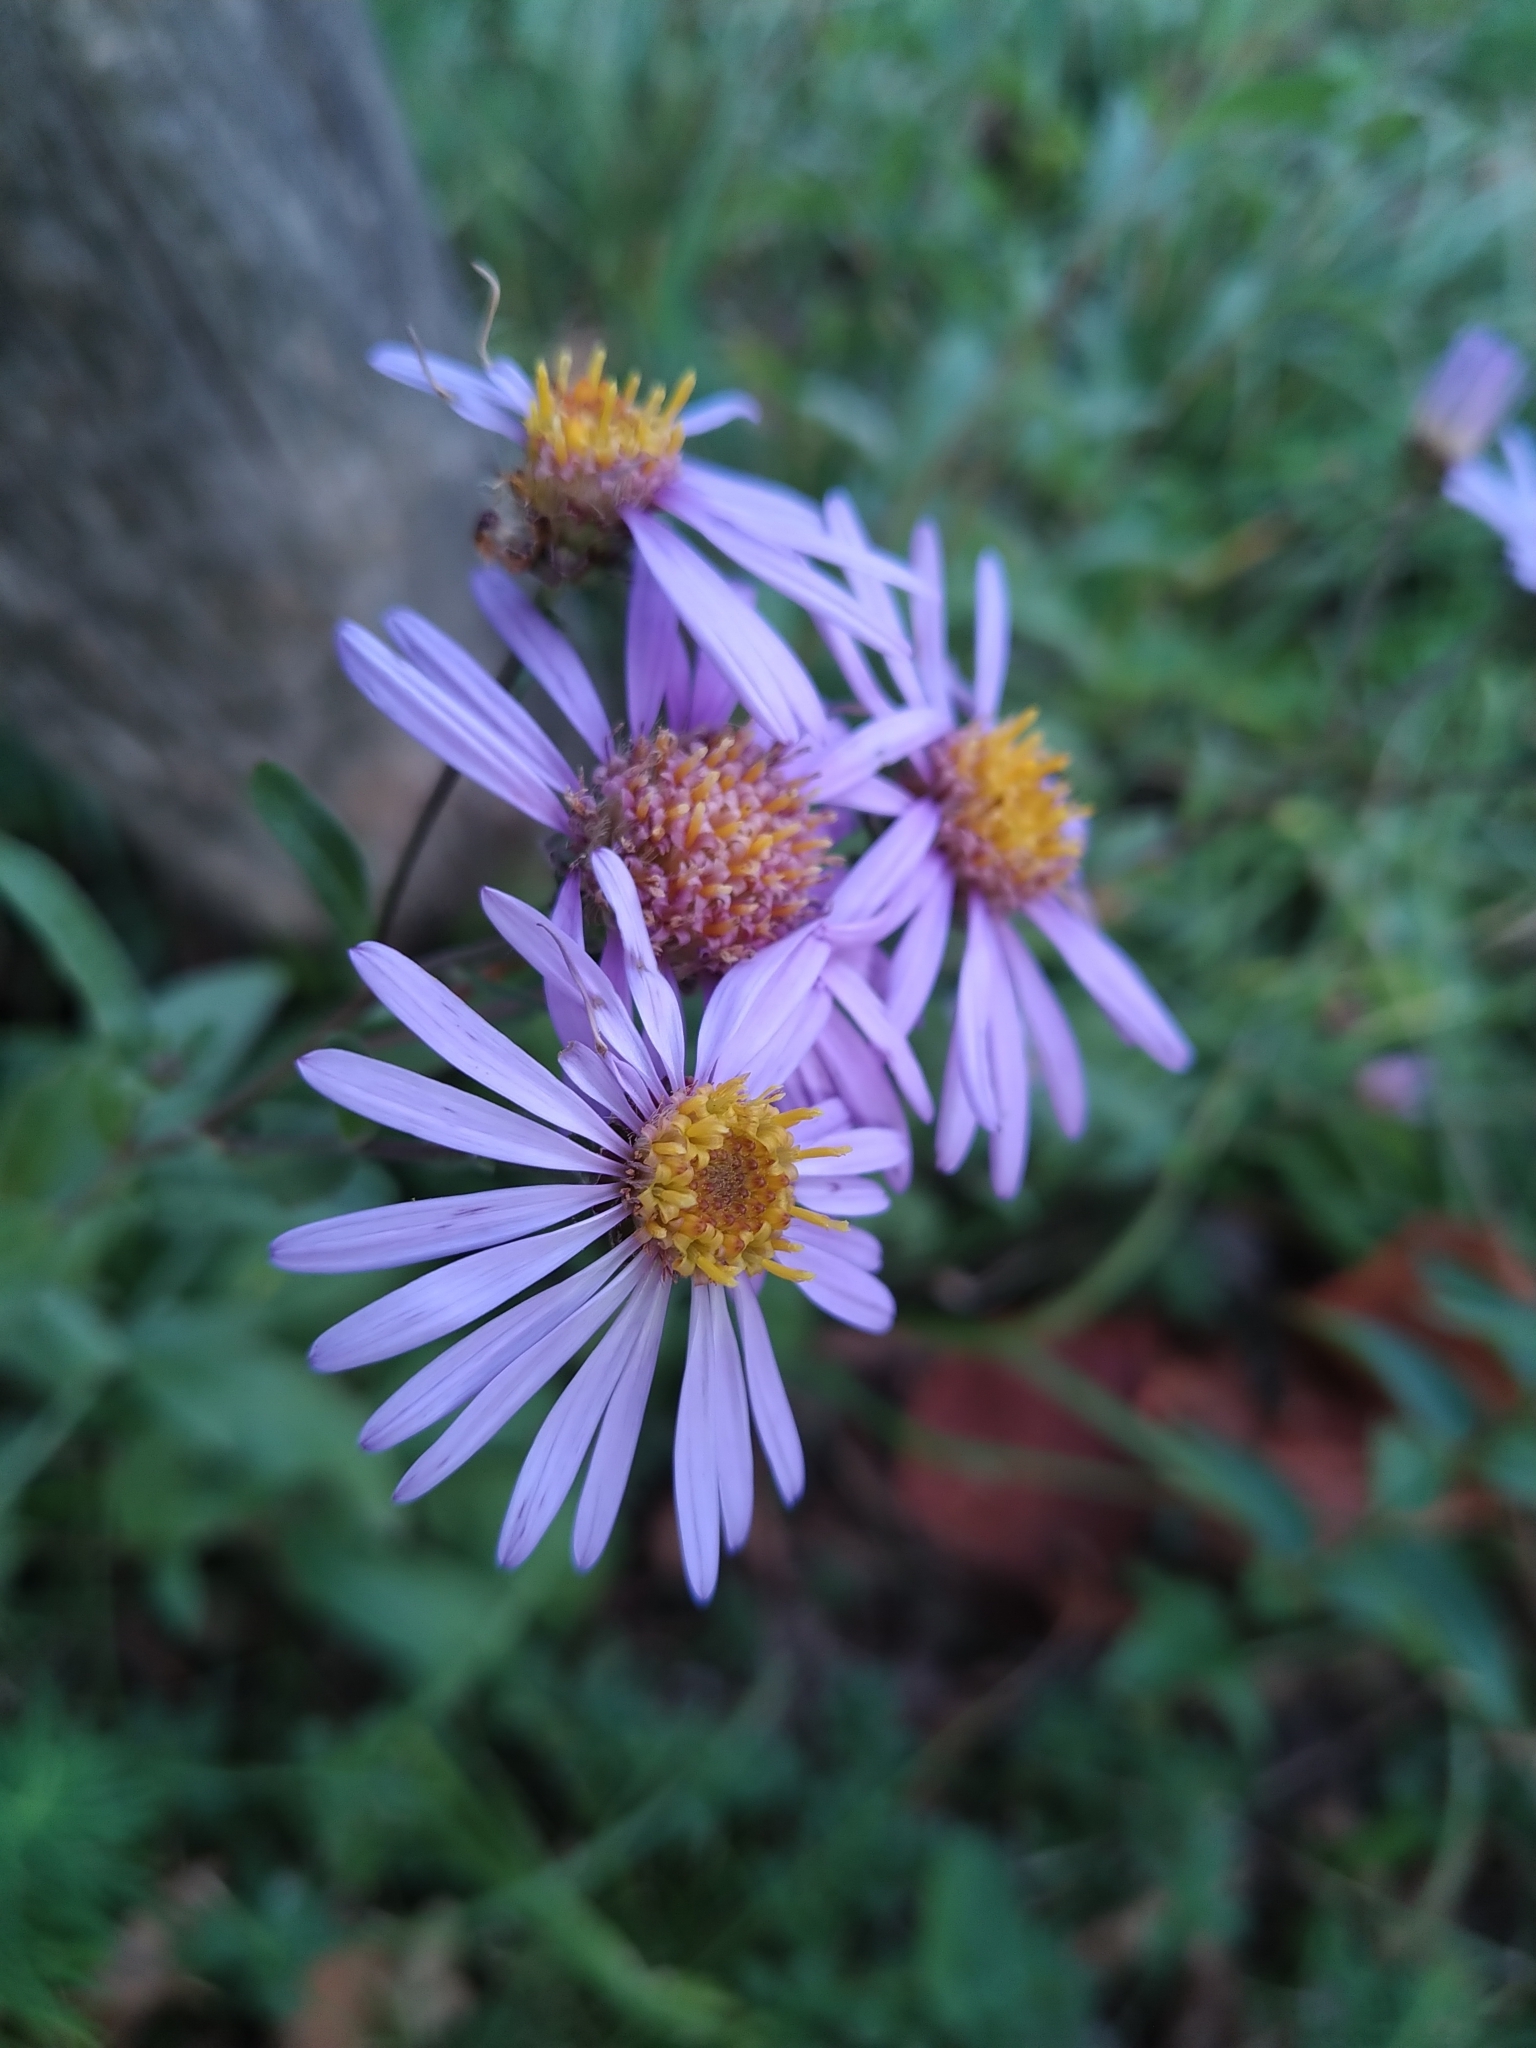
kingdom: Plantae
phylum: Tracheophyta
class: Magnoliopsida
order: Asterales
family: Asteraceae
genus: Aster
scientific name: Aster amellus
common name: European michaelmas daisy
